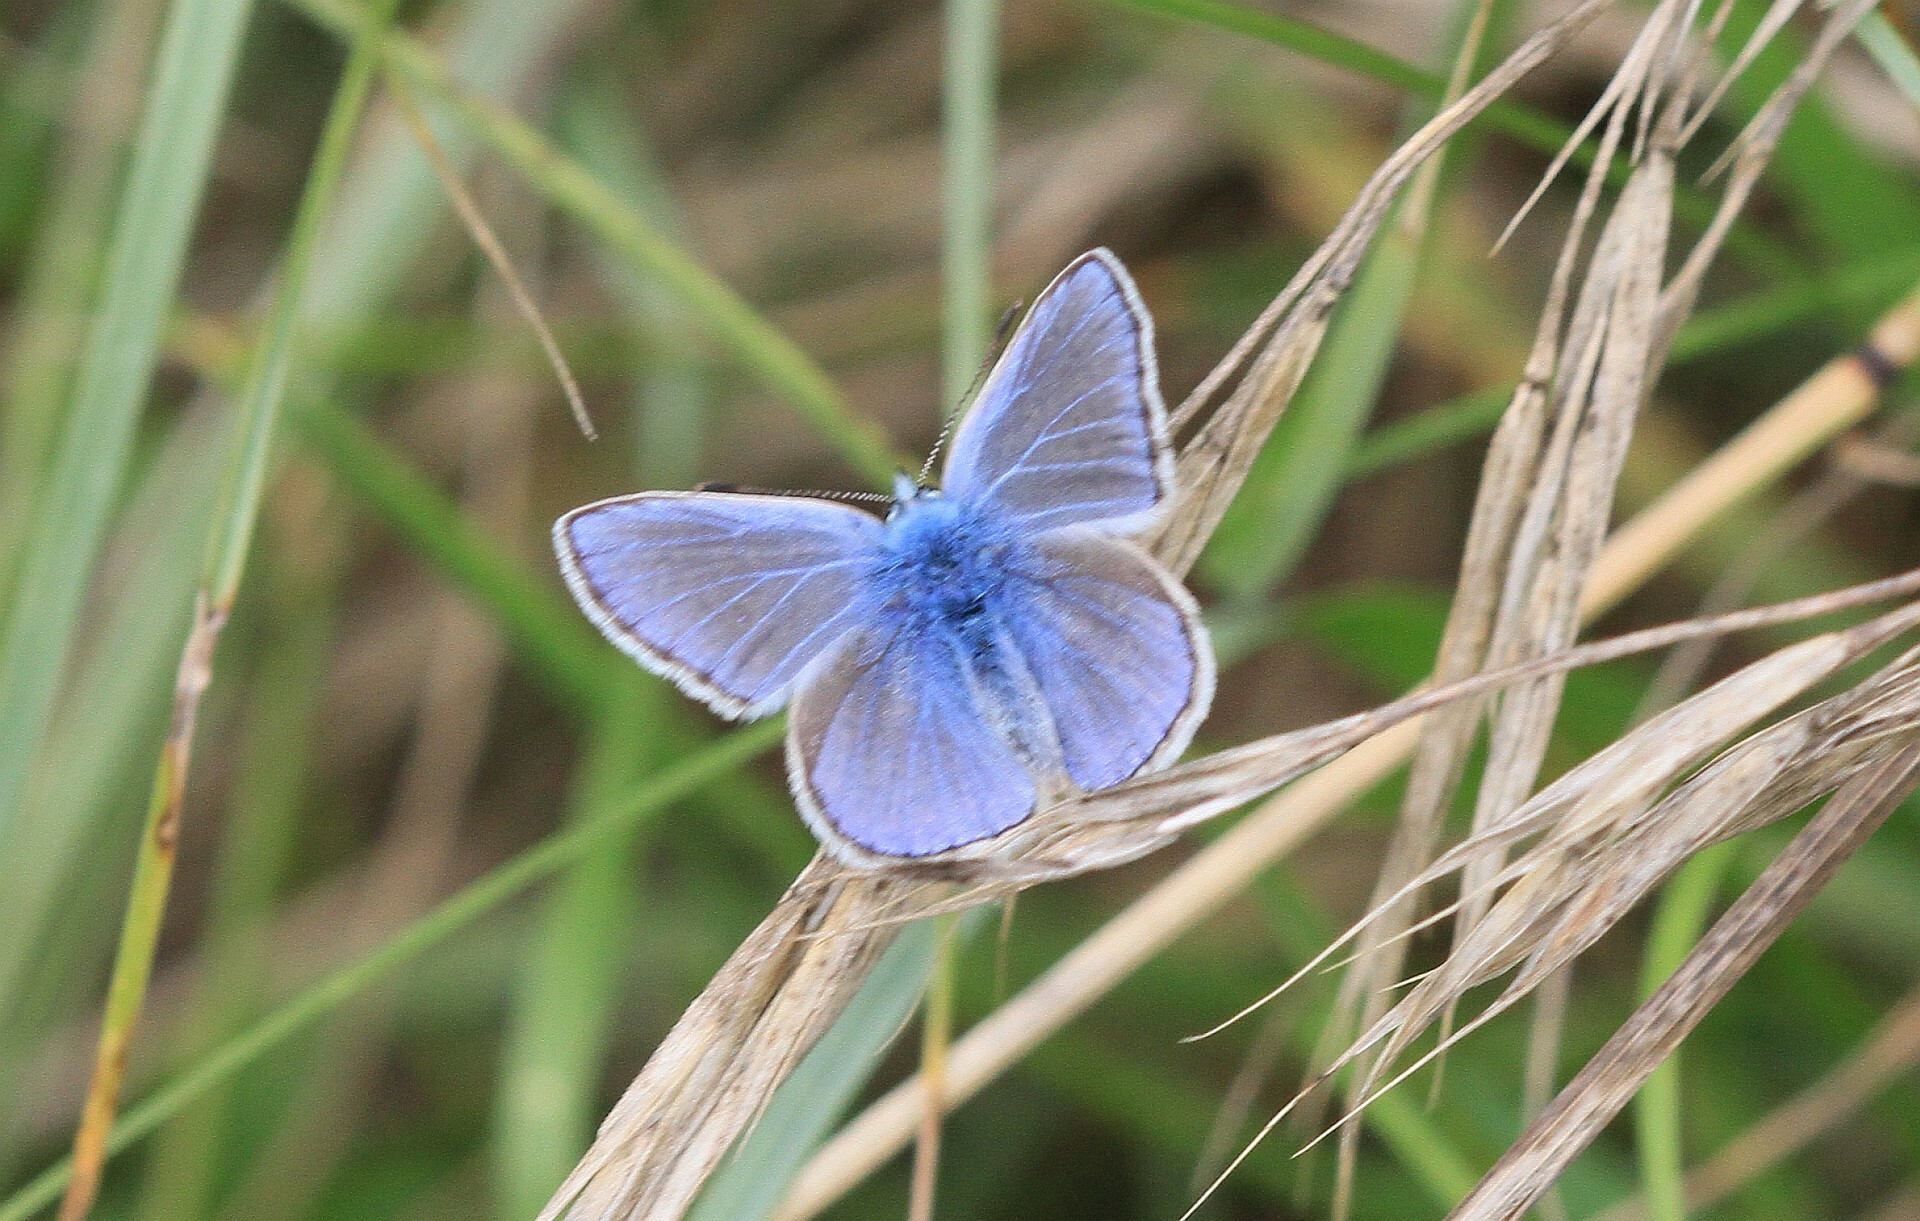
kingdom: Animalia
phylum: Arthropoda
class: Insecta
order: Lepidoptera
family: Lycaenidae
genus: Polyommatus
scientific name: Polyommatus icarus
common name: Common blue
